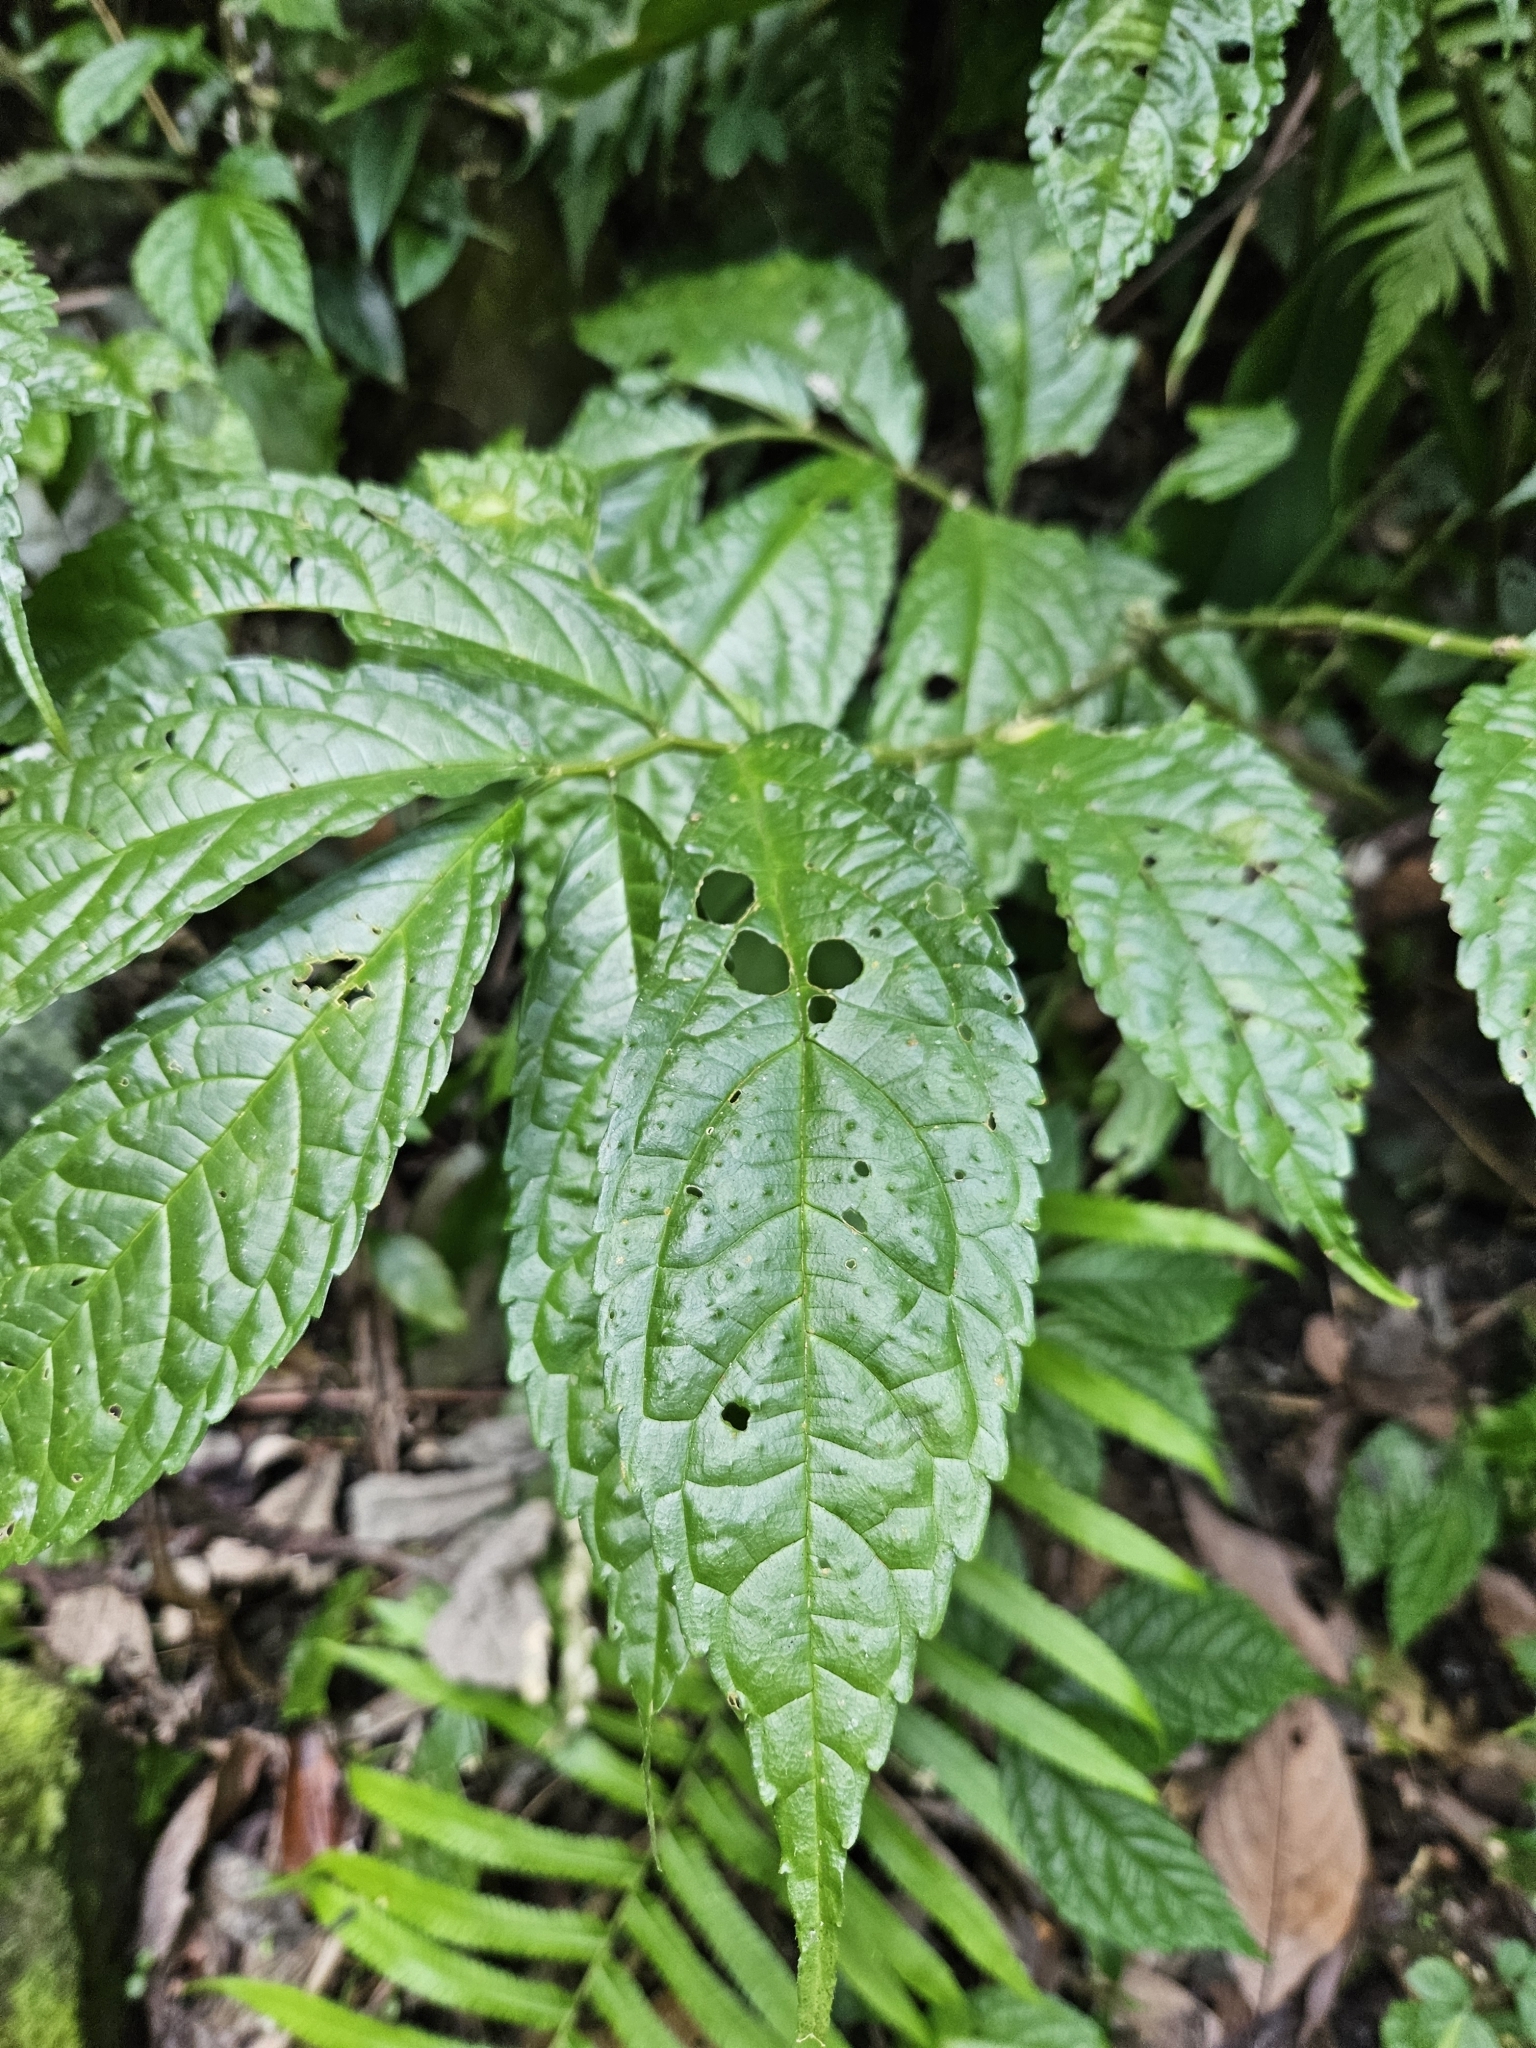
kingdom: Plantae
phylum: Tracheophyta
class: Magnoliopsida
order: Rosales
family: Urticaceae
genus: Elatostema
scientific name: Elatostema oblongifolium
